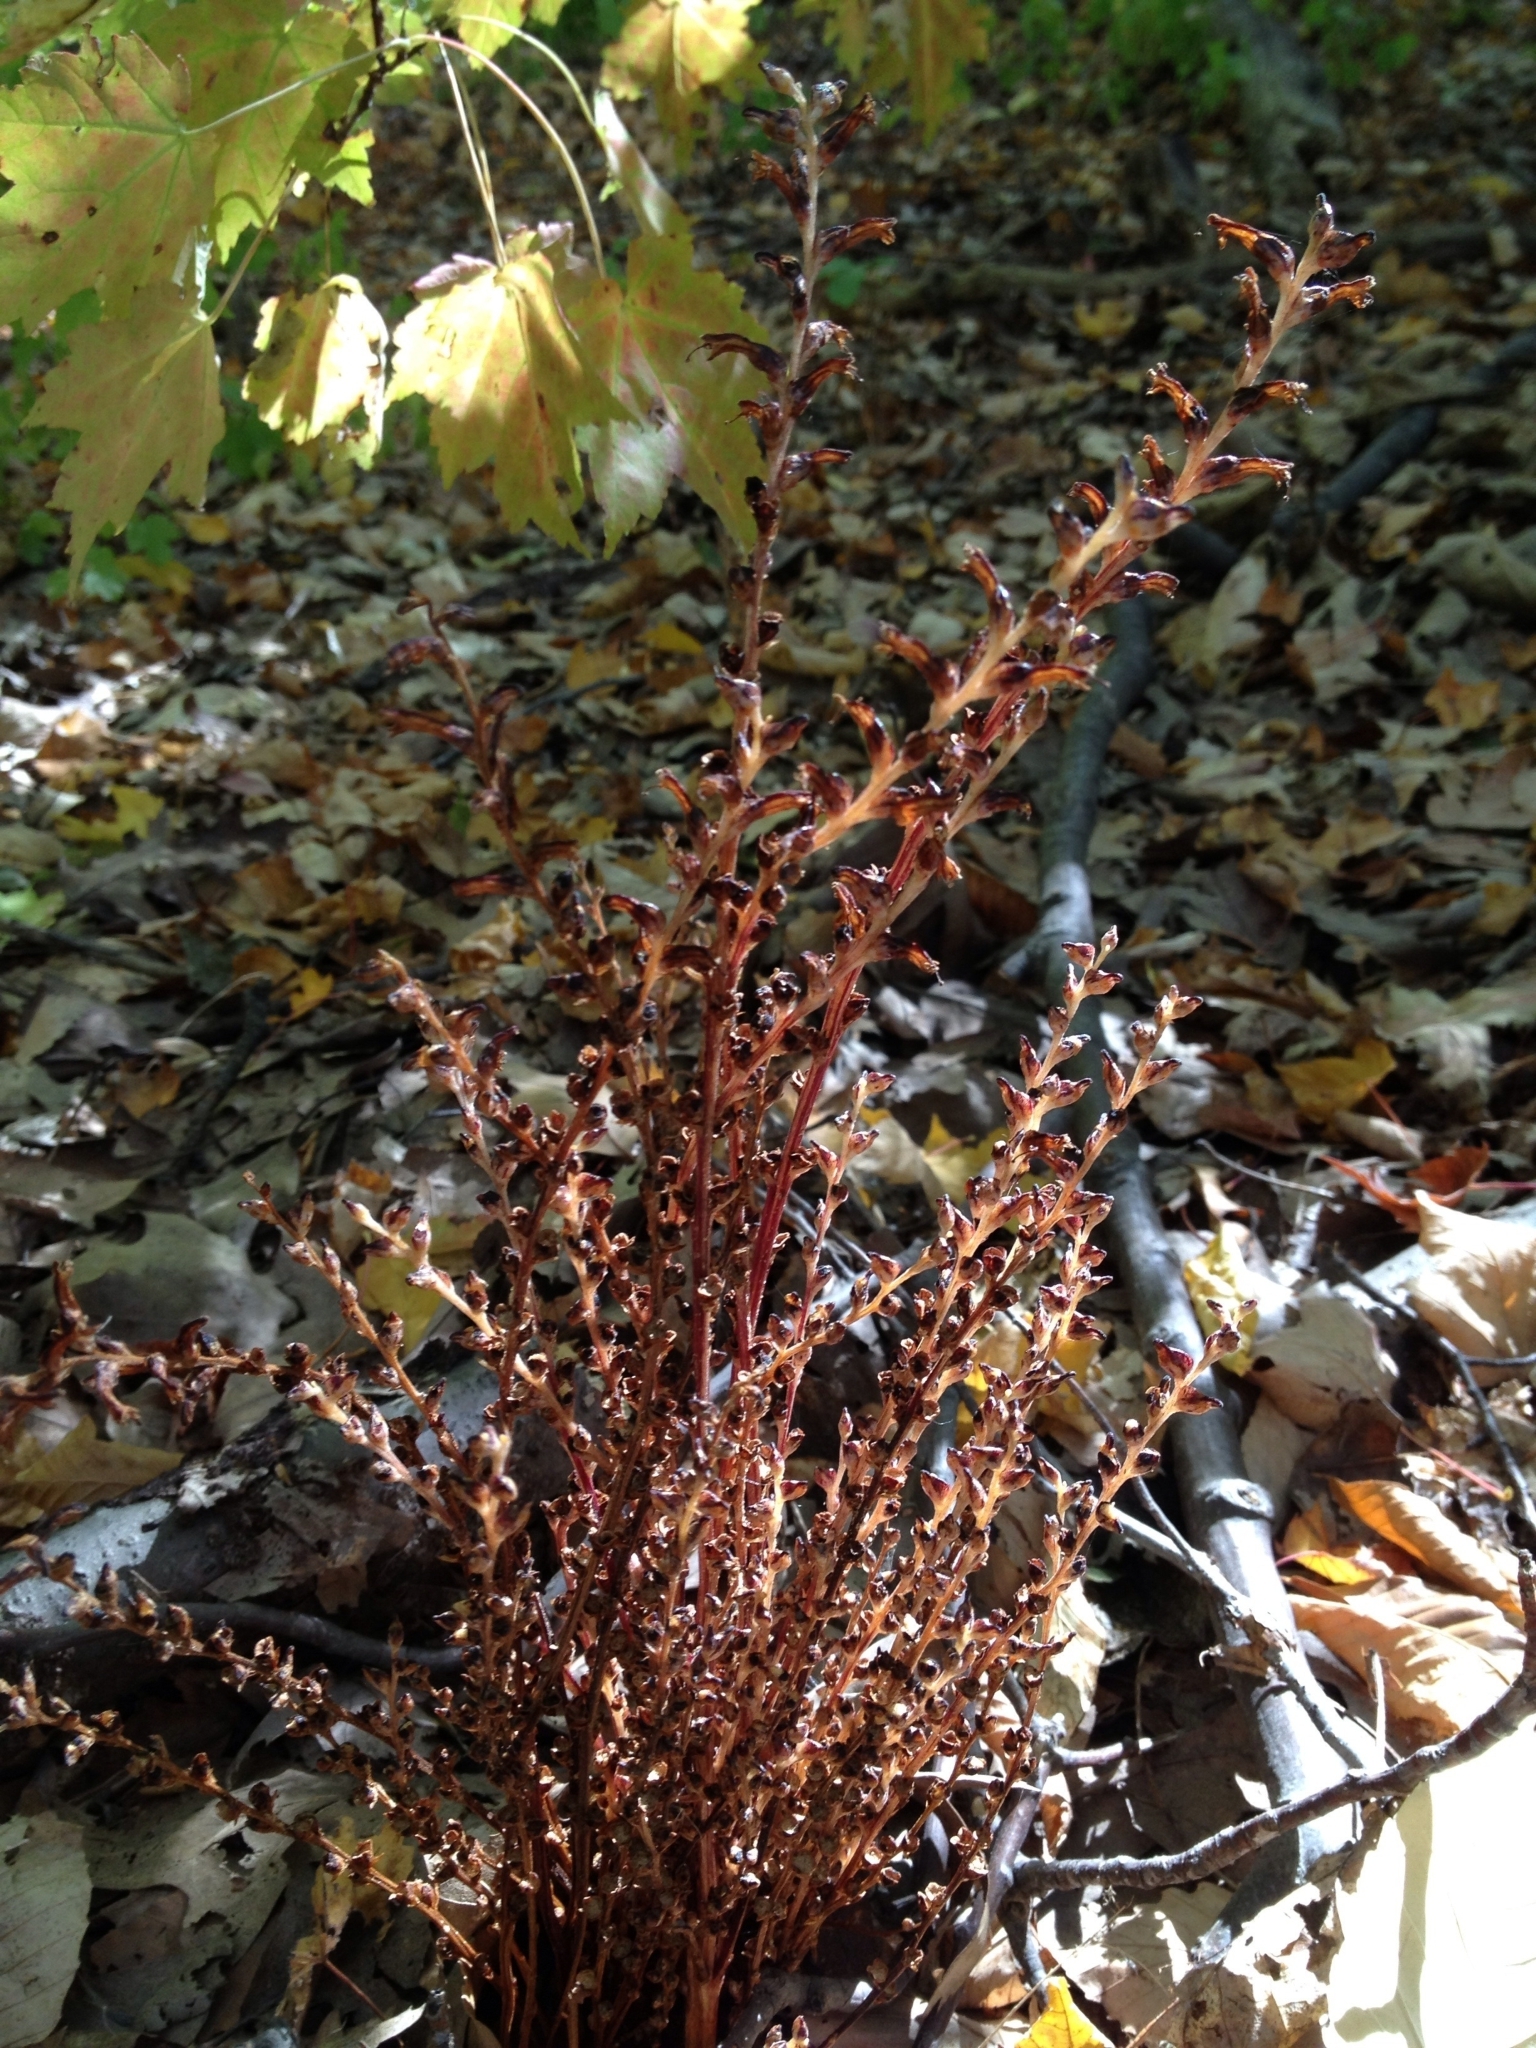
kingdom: Plantae
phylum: Tracheophyta
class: Magnoliopsida
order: Lamiales
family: Orobanchaceae
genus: Epifagus
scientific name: Epifagus virginiana
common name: Beechdrops
